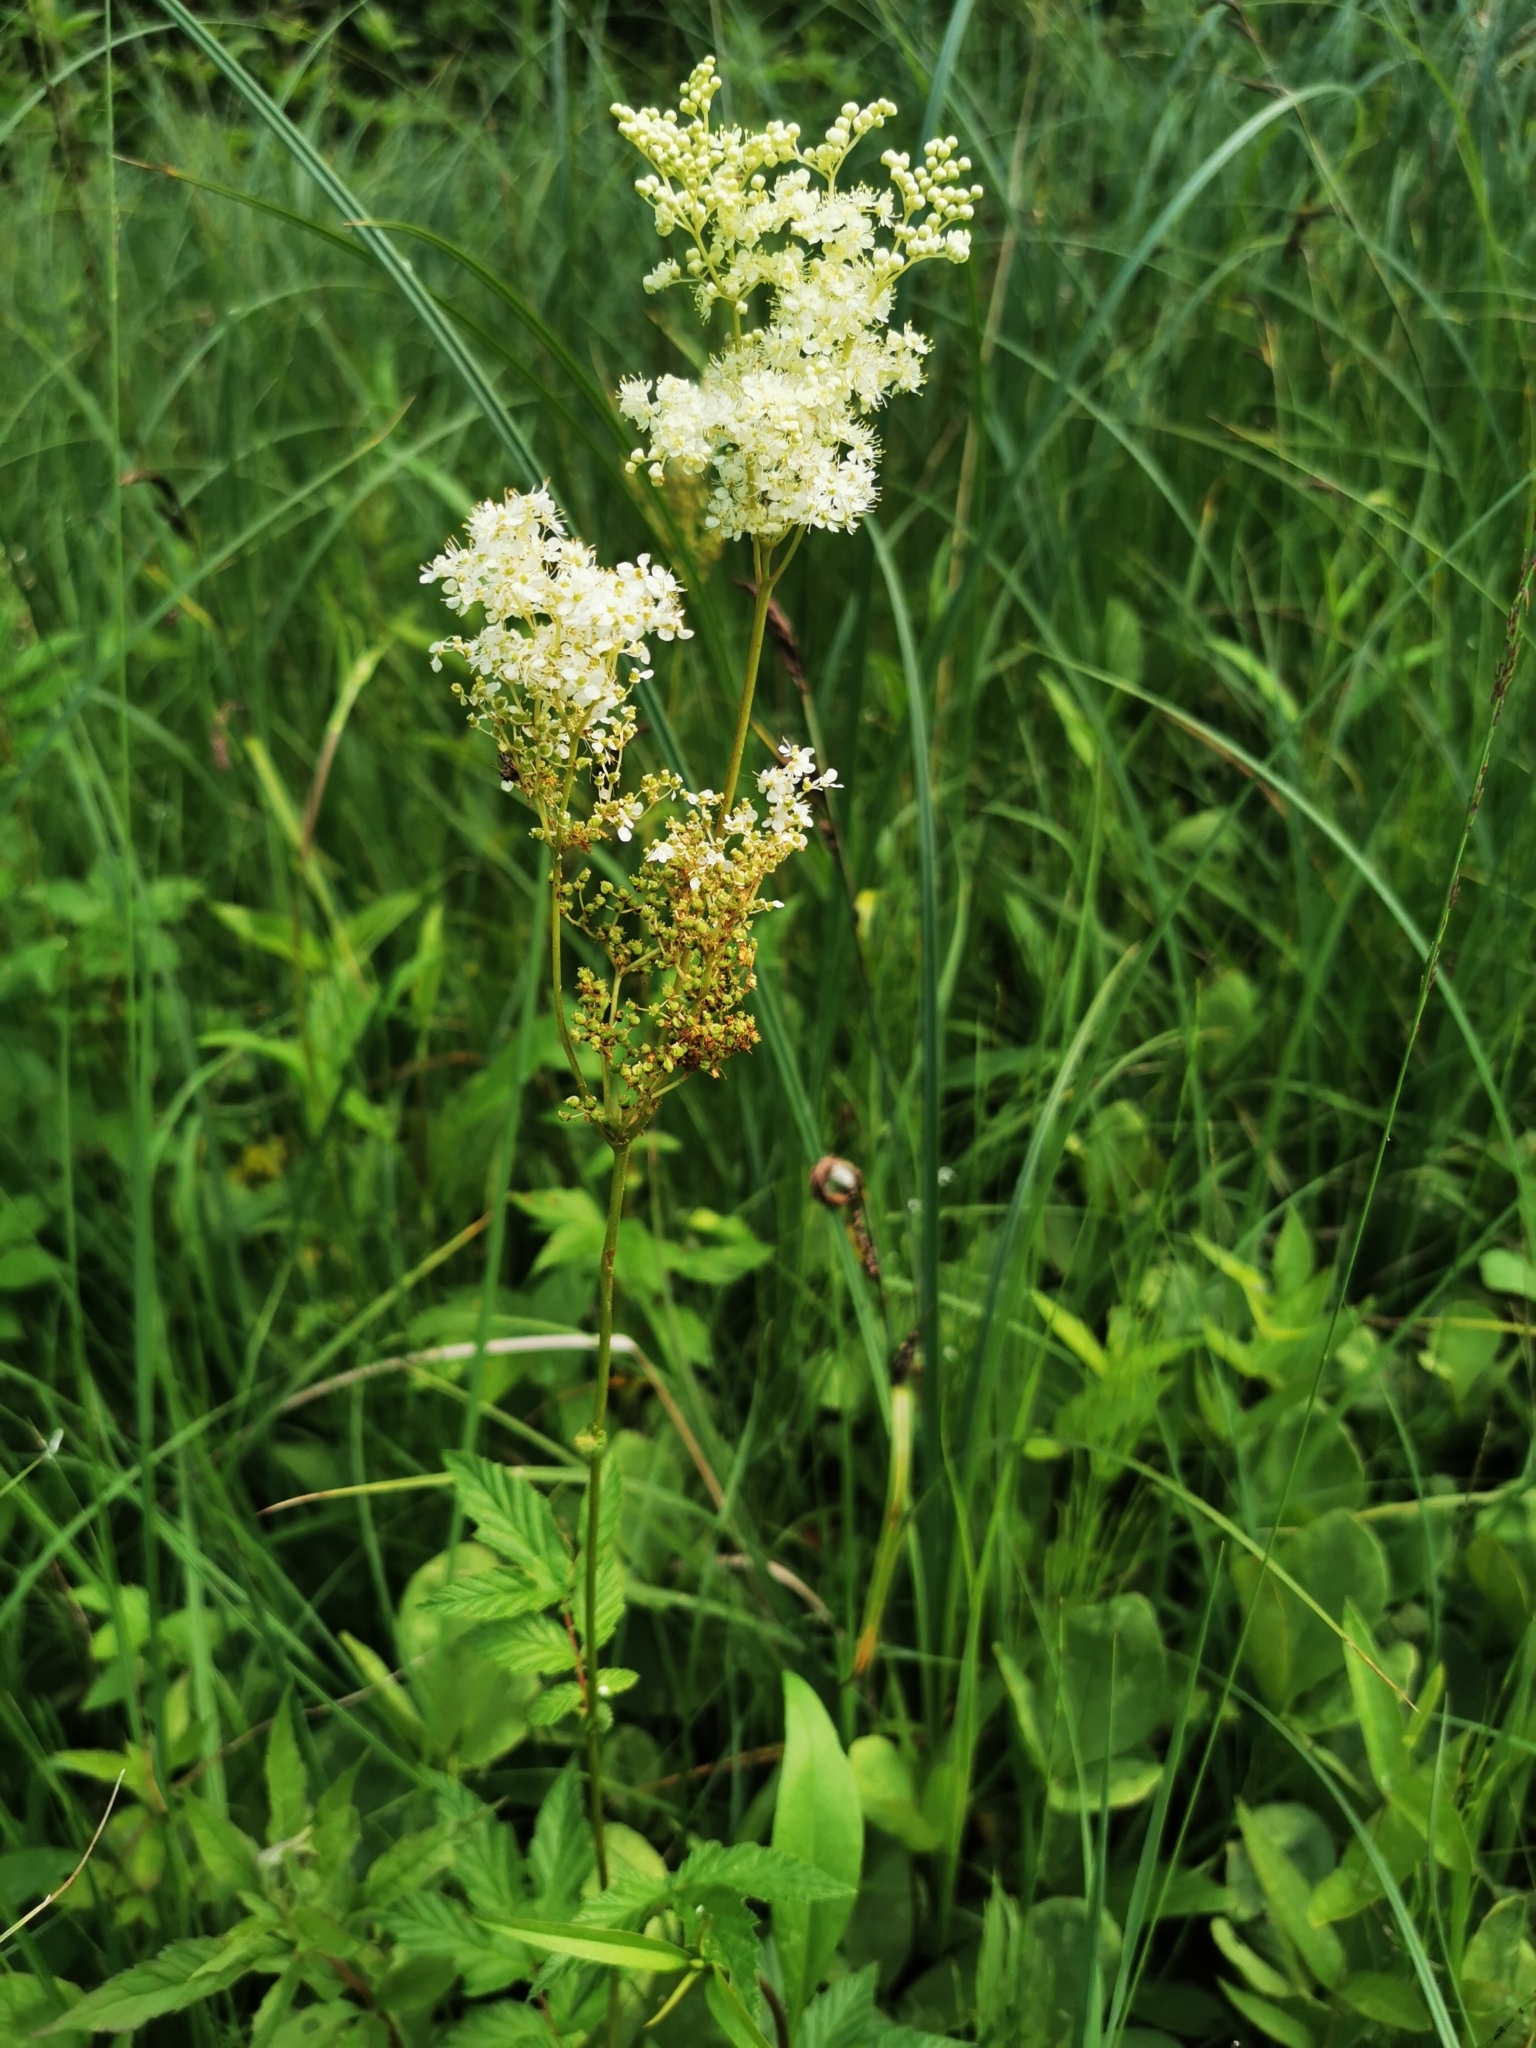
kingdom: Plantae
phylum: Tracheophyta
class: Magnoliopsida
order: Rosales
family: Rosaceae
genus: Filipendula
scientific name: Filipendula ulmaria
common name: Meadowsweet
